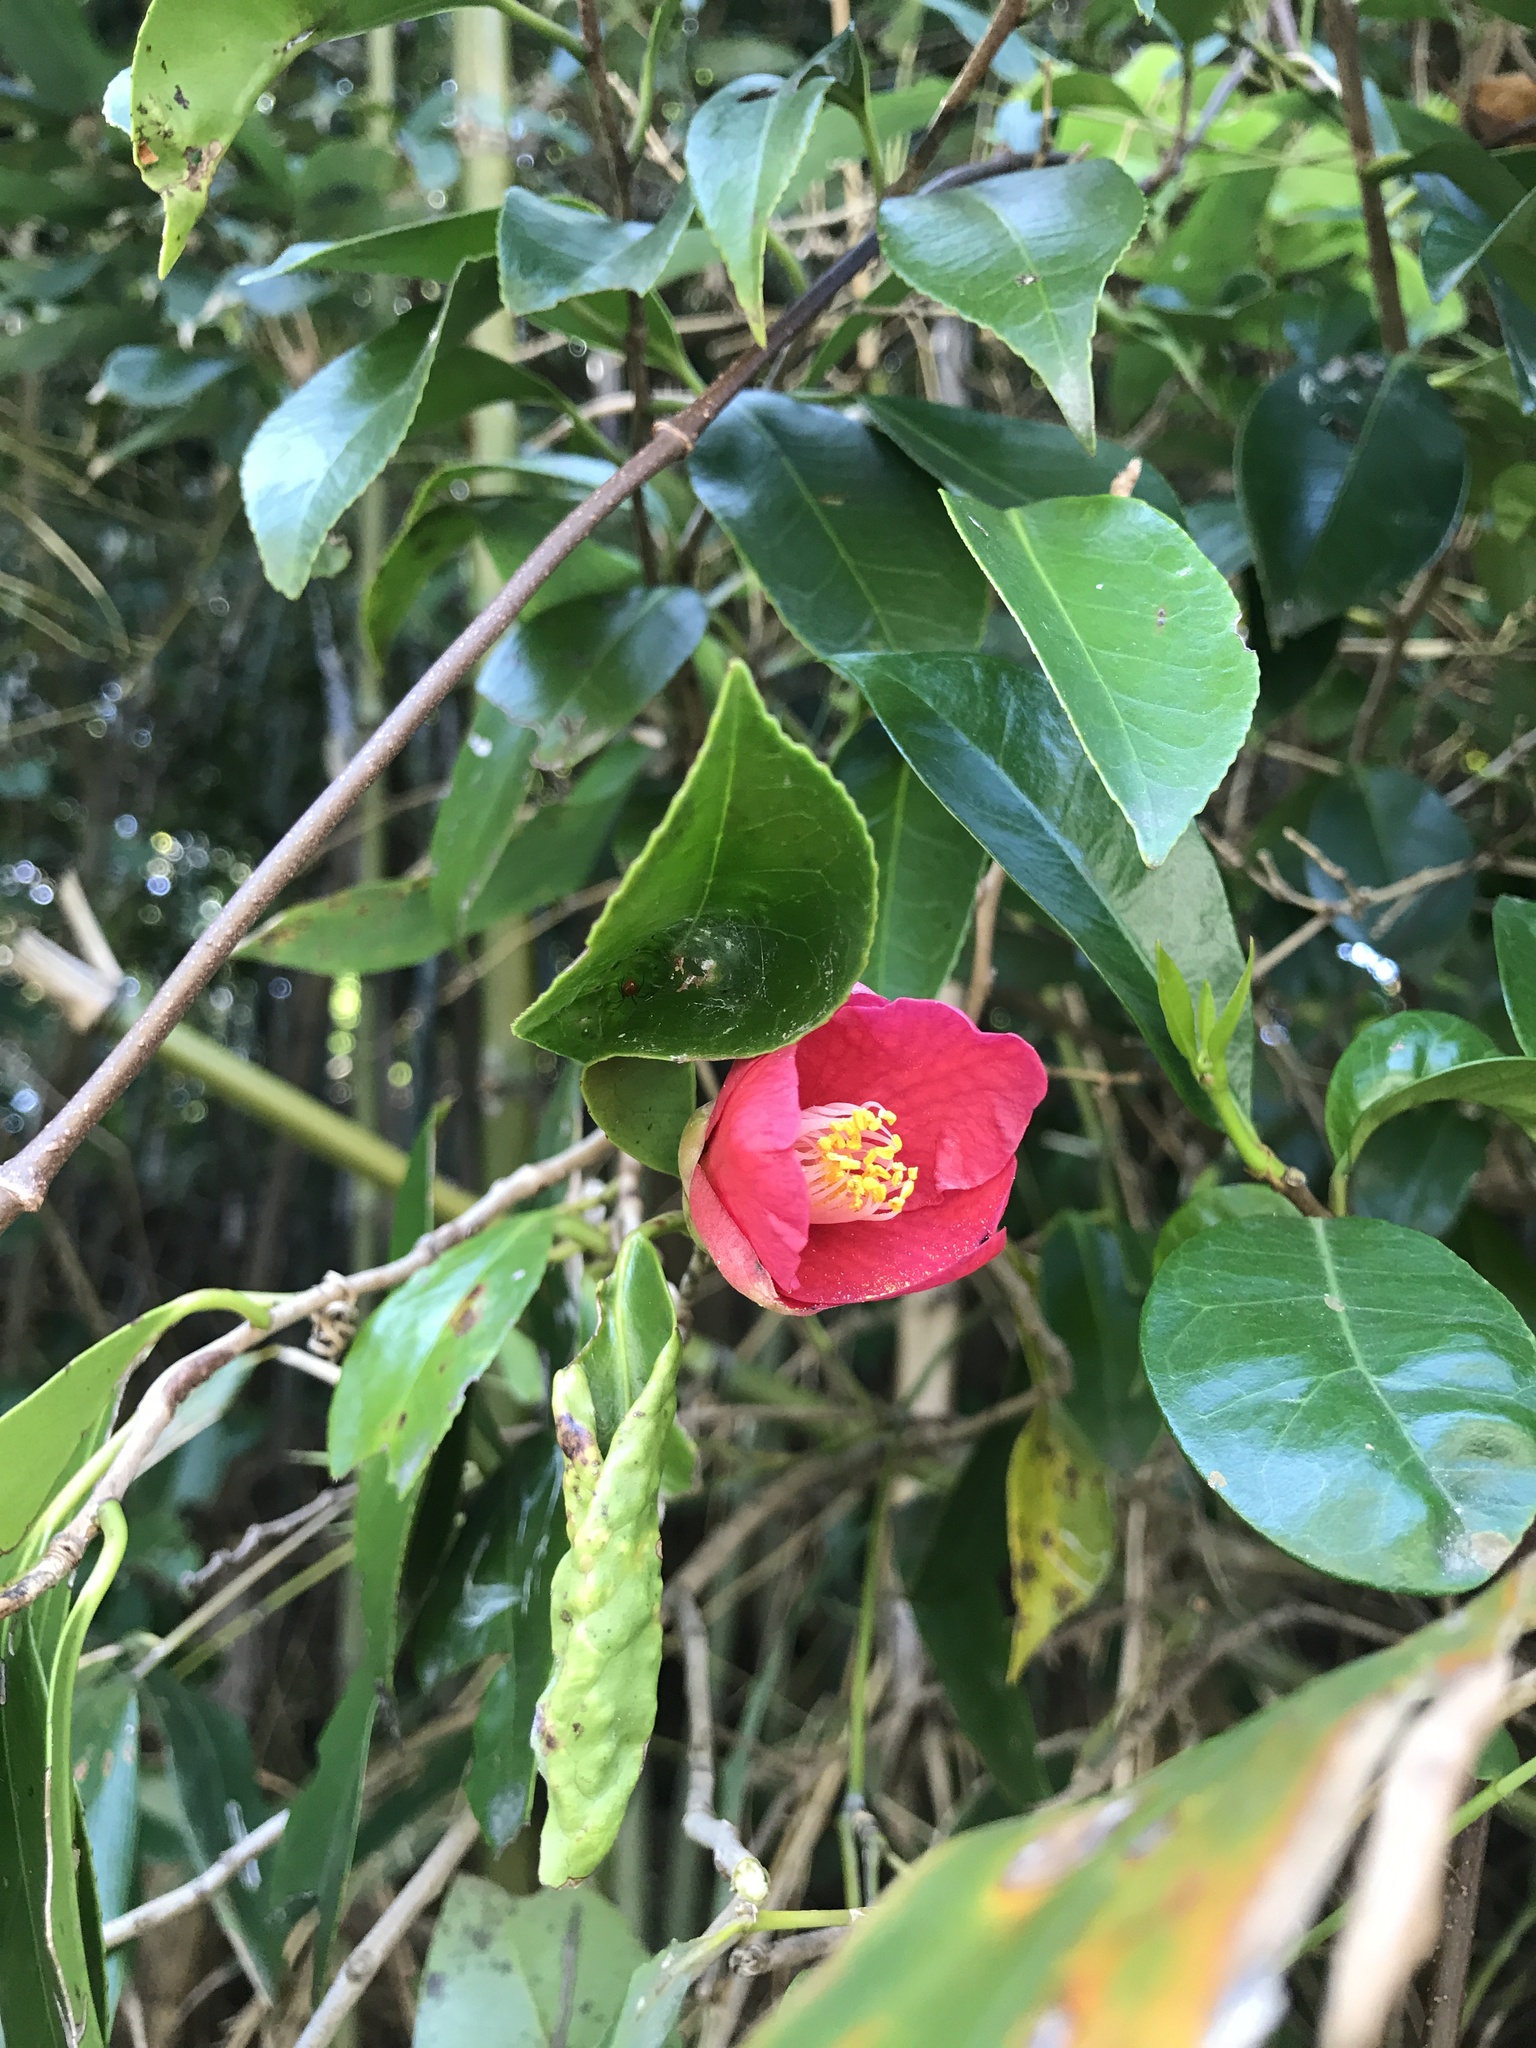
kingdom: Plantae
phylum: Tracheophyta
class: Magnoliopsida
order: Ericales
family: Theaceae
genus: Camellia
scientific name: Camellia japonica
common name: Camellia
